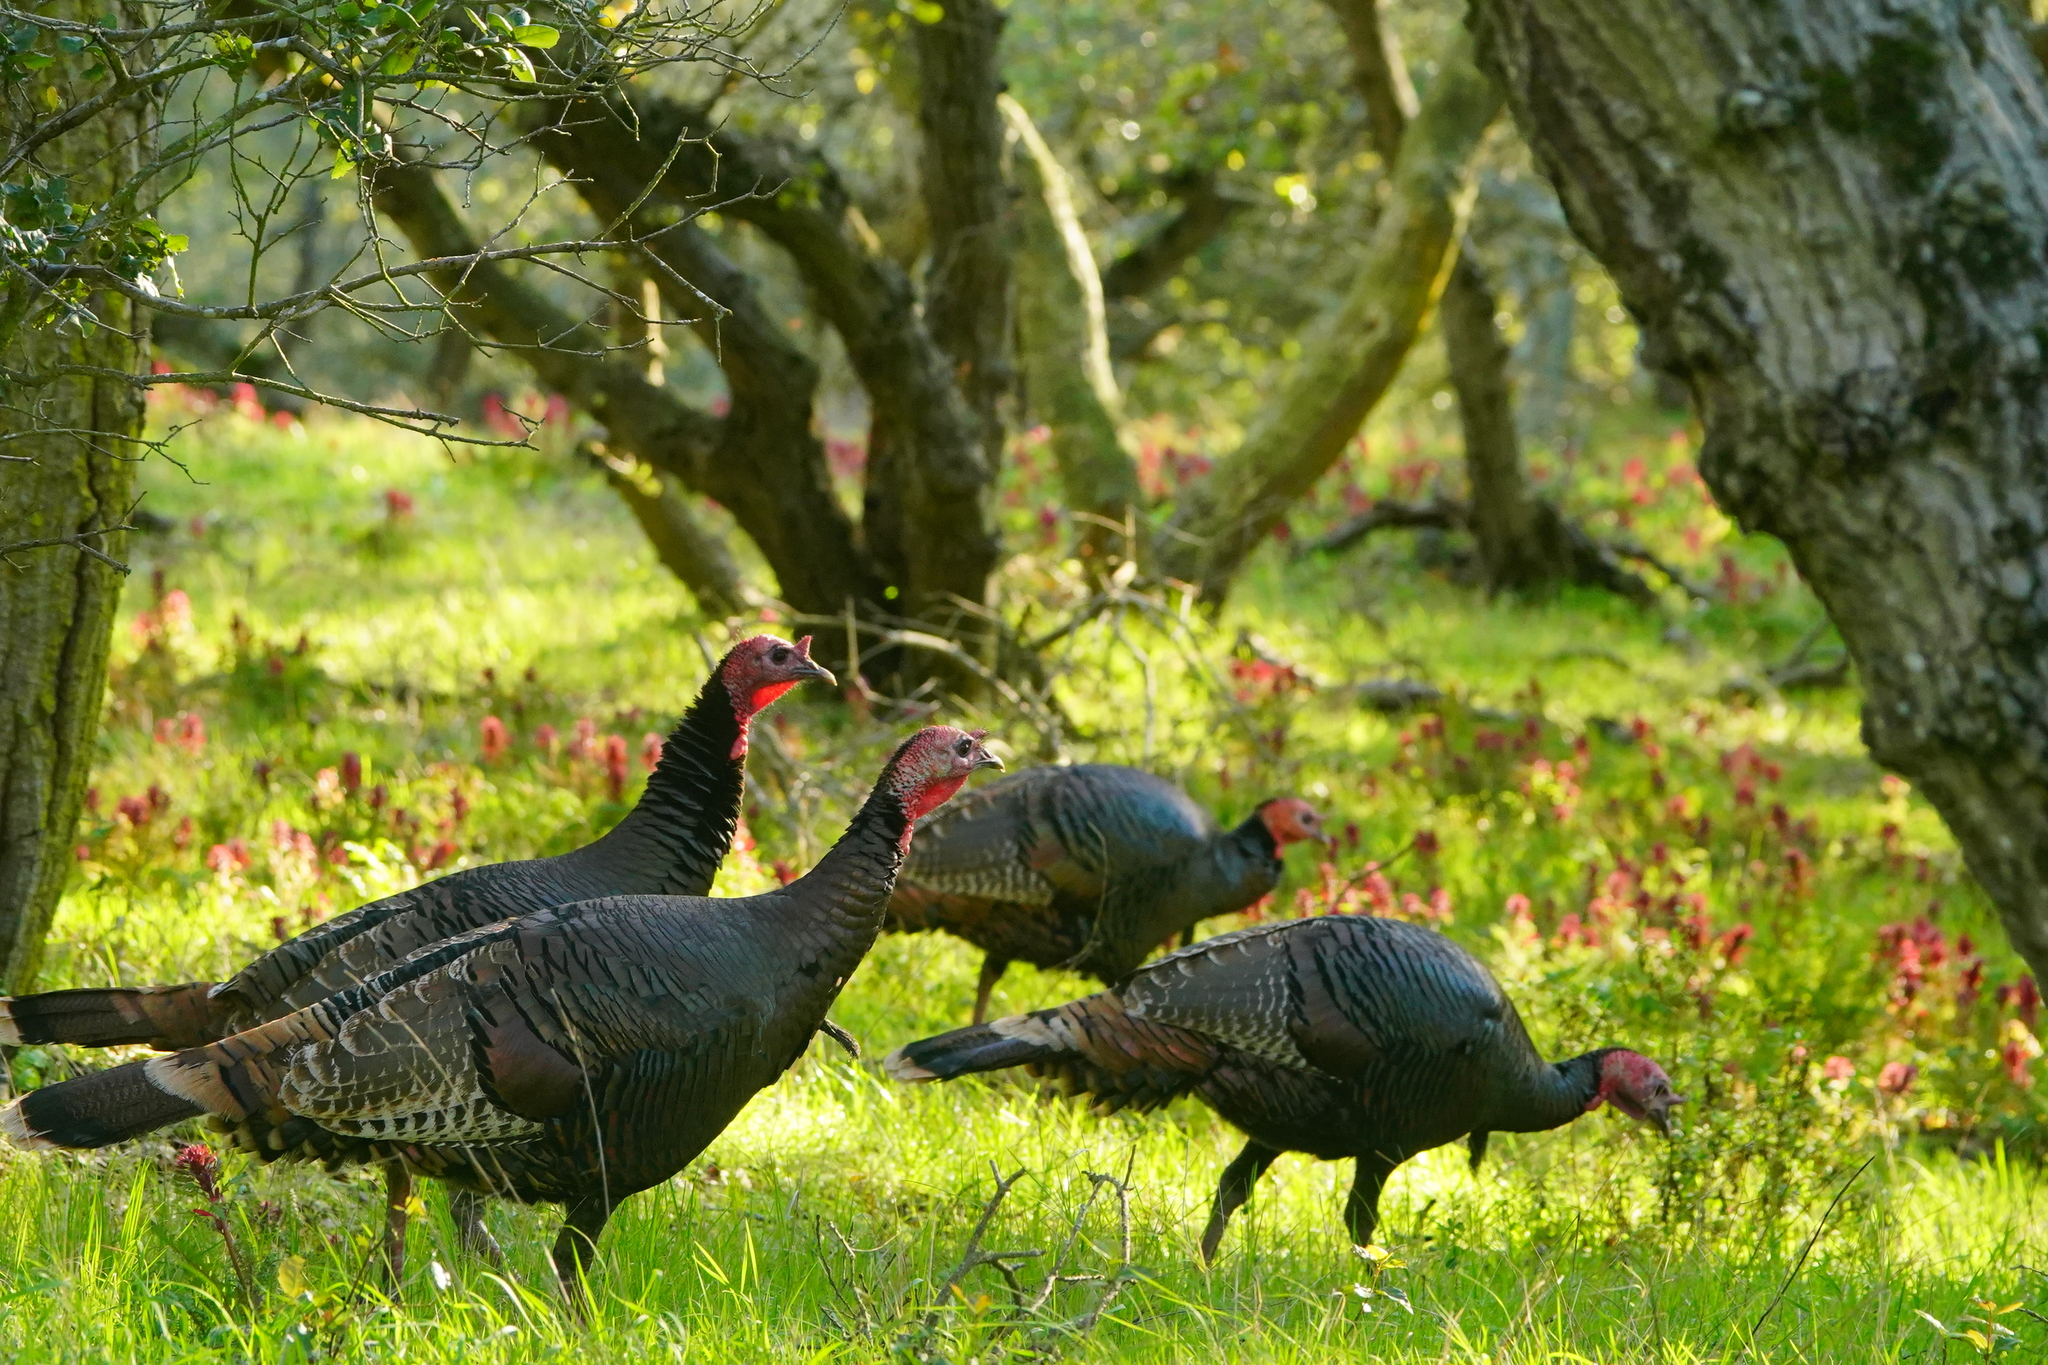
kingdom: Animalia
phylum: Chordata
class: Aves
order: Galliformes
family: Phasianidae
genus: Meleagris
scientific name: Meleagris gallopavo
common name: Wild turkey
